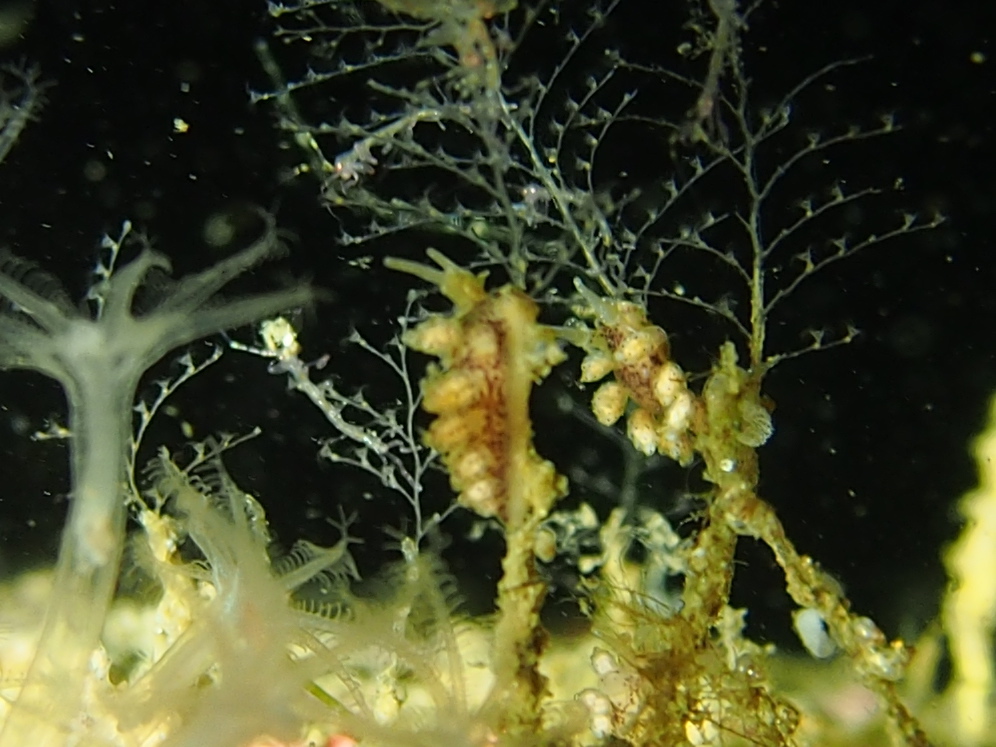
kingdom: Animalia
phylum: Mollusca
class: Gastropoda
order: Nudibranchia
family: Dotidae
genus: Doto
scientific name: Doto dunnei
